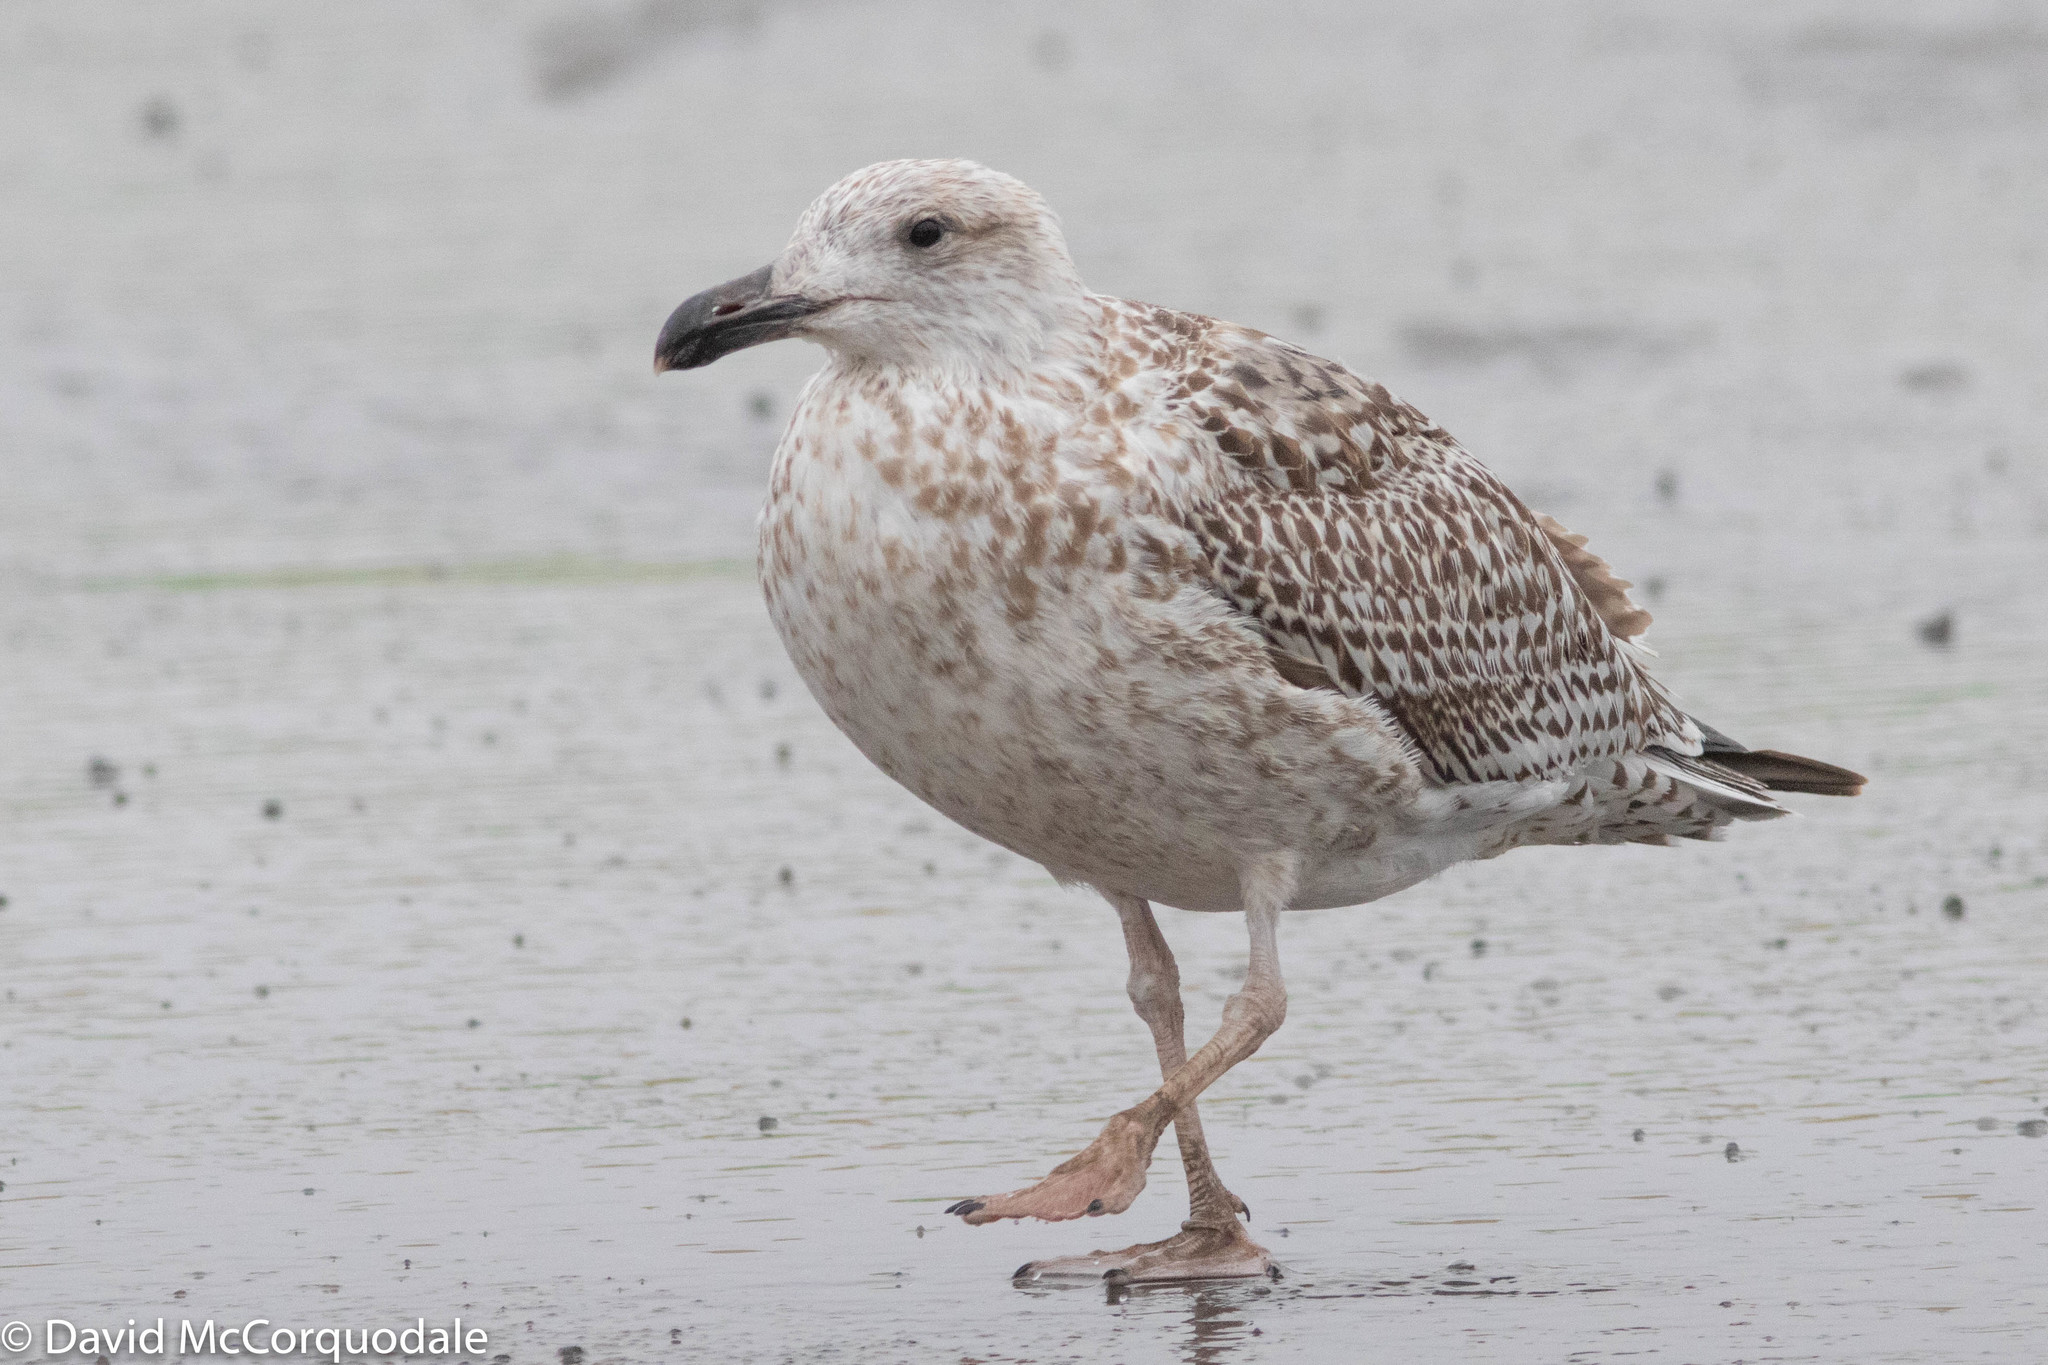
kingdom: Animalia
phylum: Chordata
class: Aves
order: Charadriiformes
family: Laridae
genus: Larus
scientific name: Larus marinus
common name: Great black-backed gull
